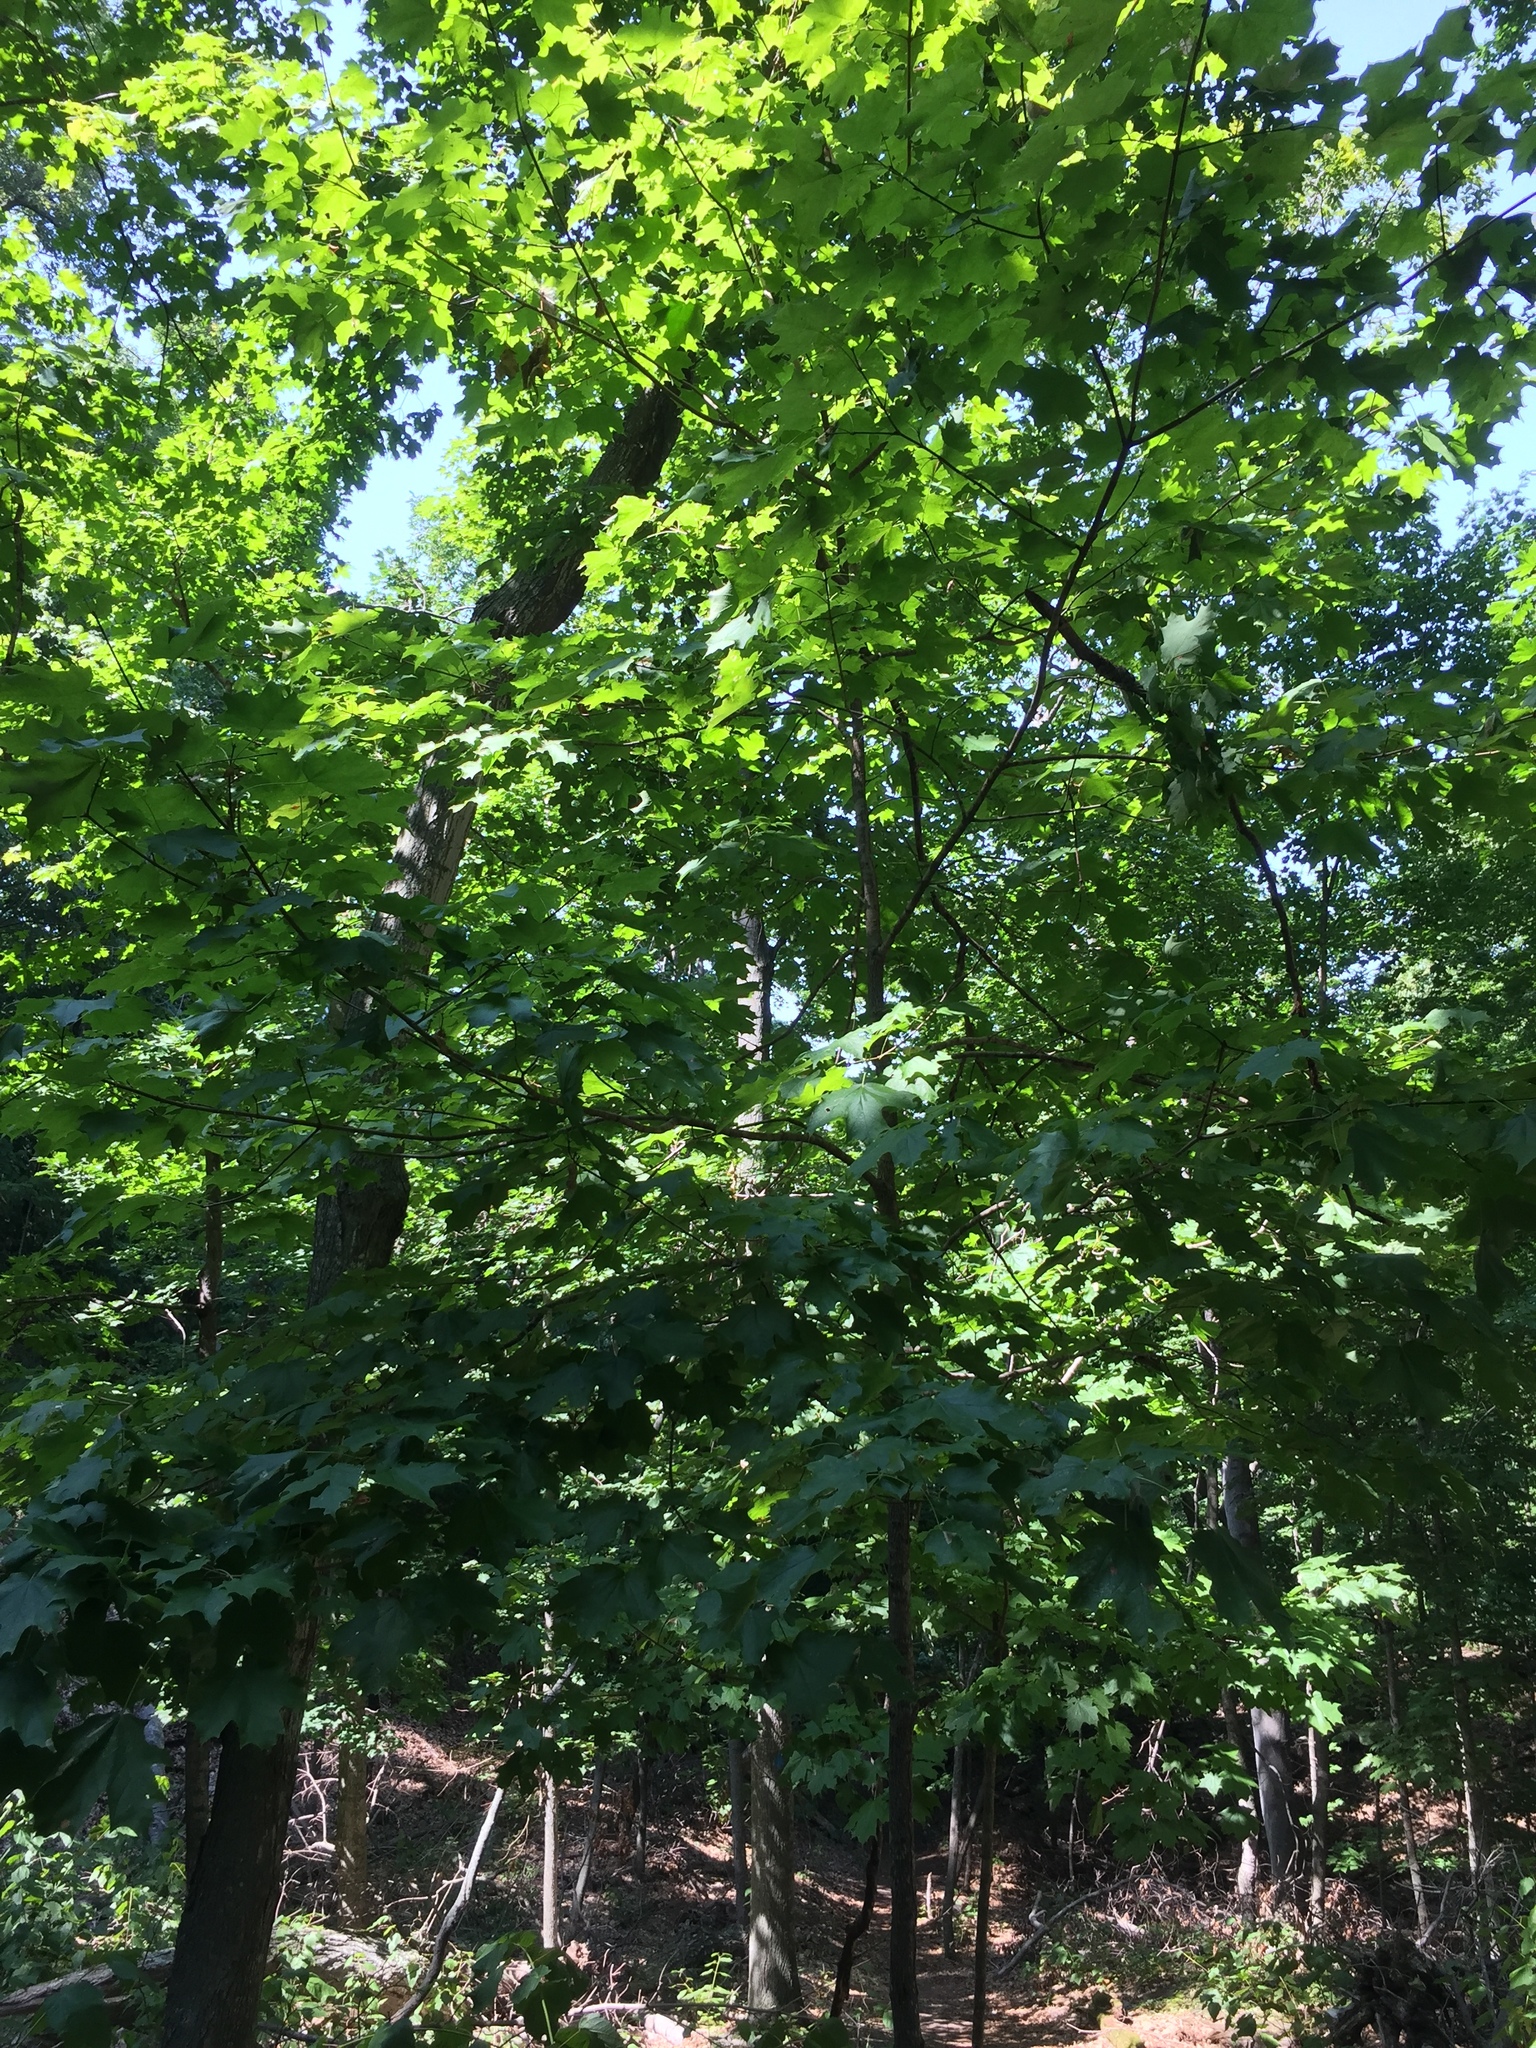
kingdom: Plantae
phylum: Tracheophyta
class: Magnoliopsida
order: Sapindales
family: Sapindaceae
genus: Acer
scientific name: Acer saccharum
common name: Sugar maple
